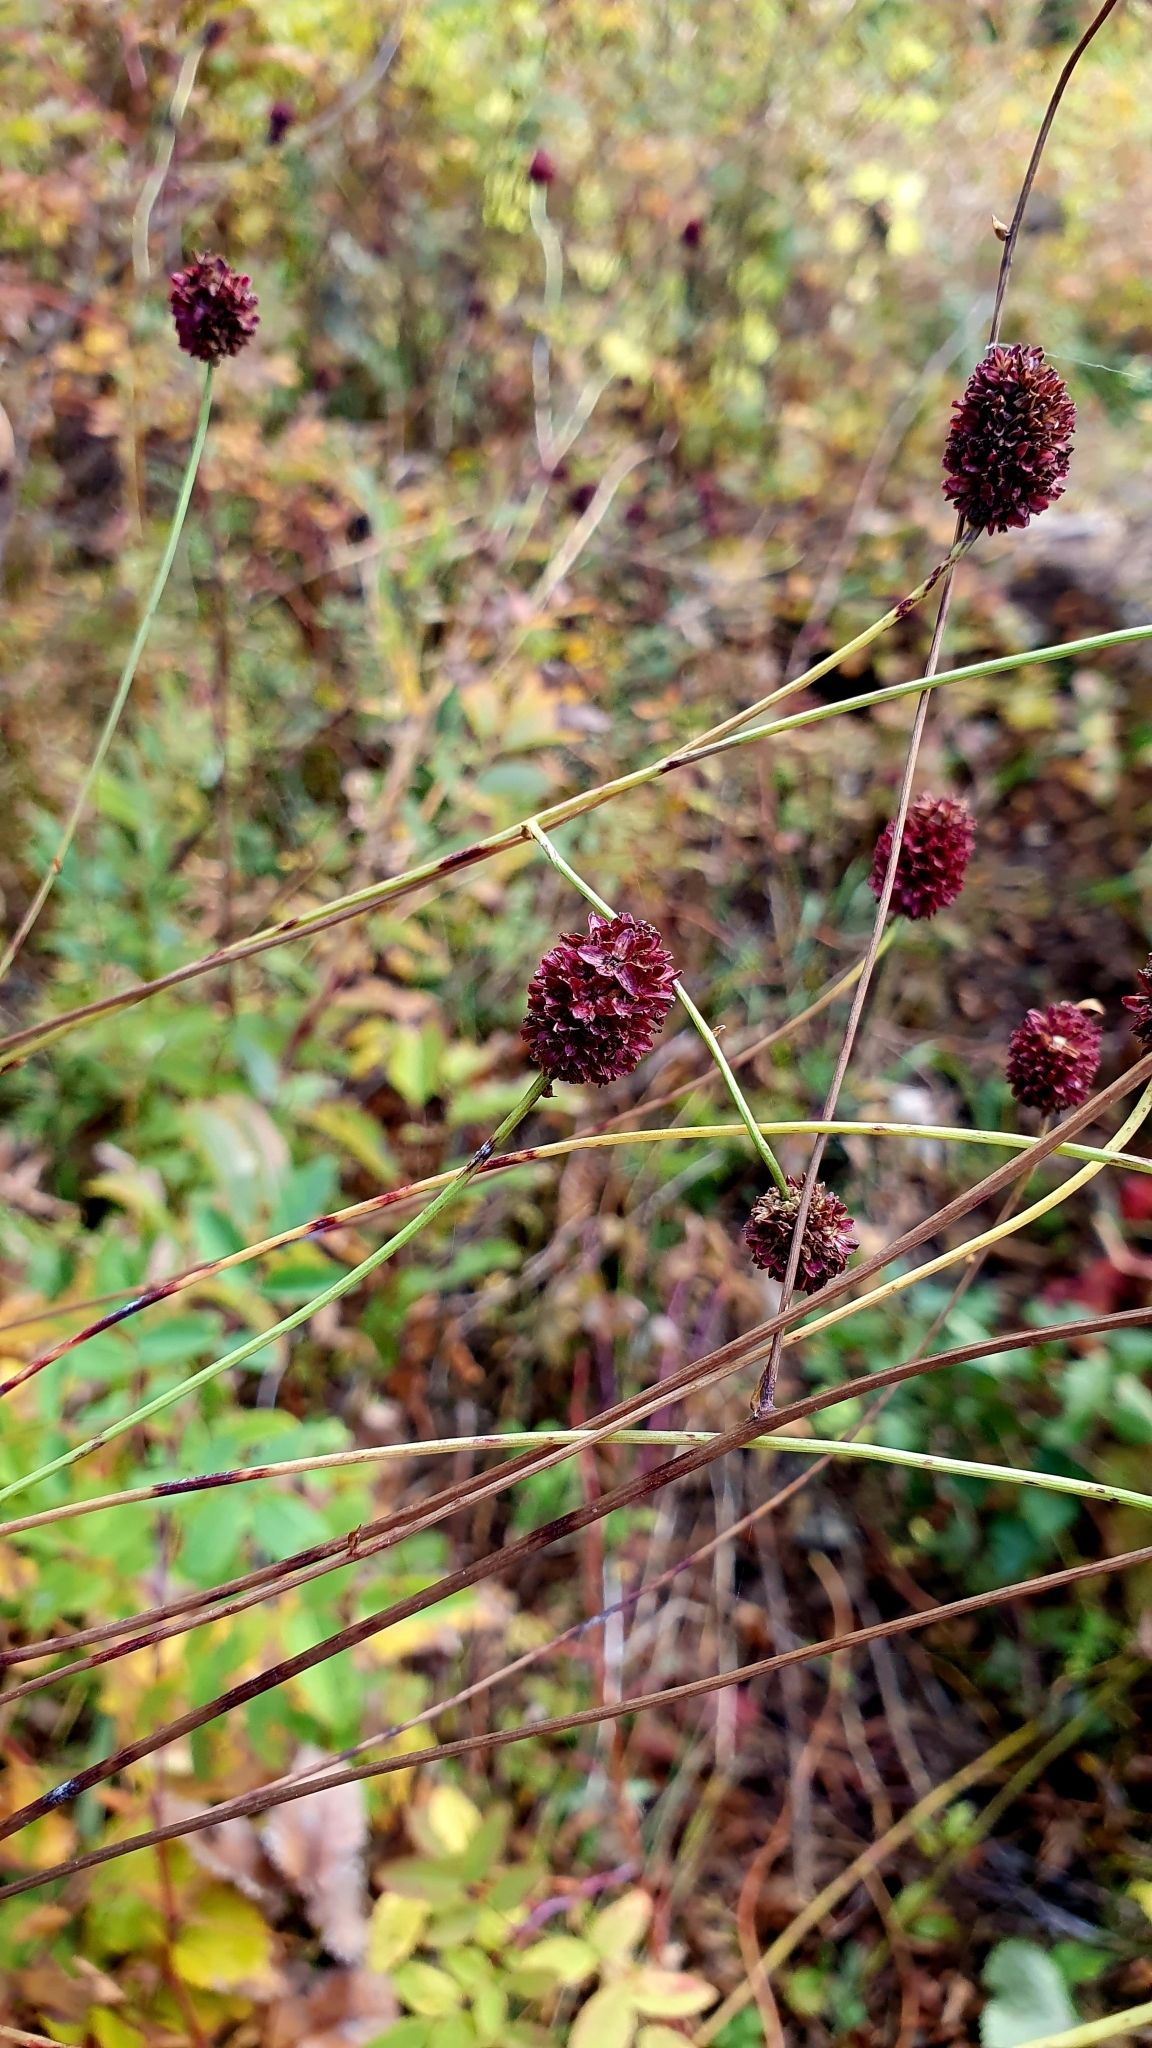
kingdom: Plantae
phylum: Tracheophyta
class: Magnoliopsida
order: Rosales
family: Rosaceae
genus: Sanguisorba
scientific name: Sanguisorba officinalis
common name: Great burnet
